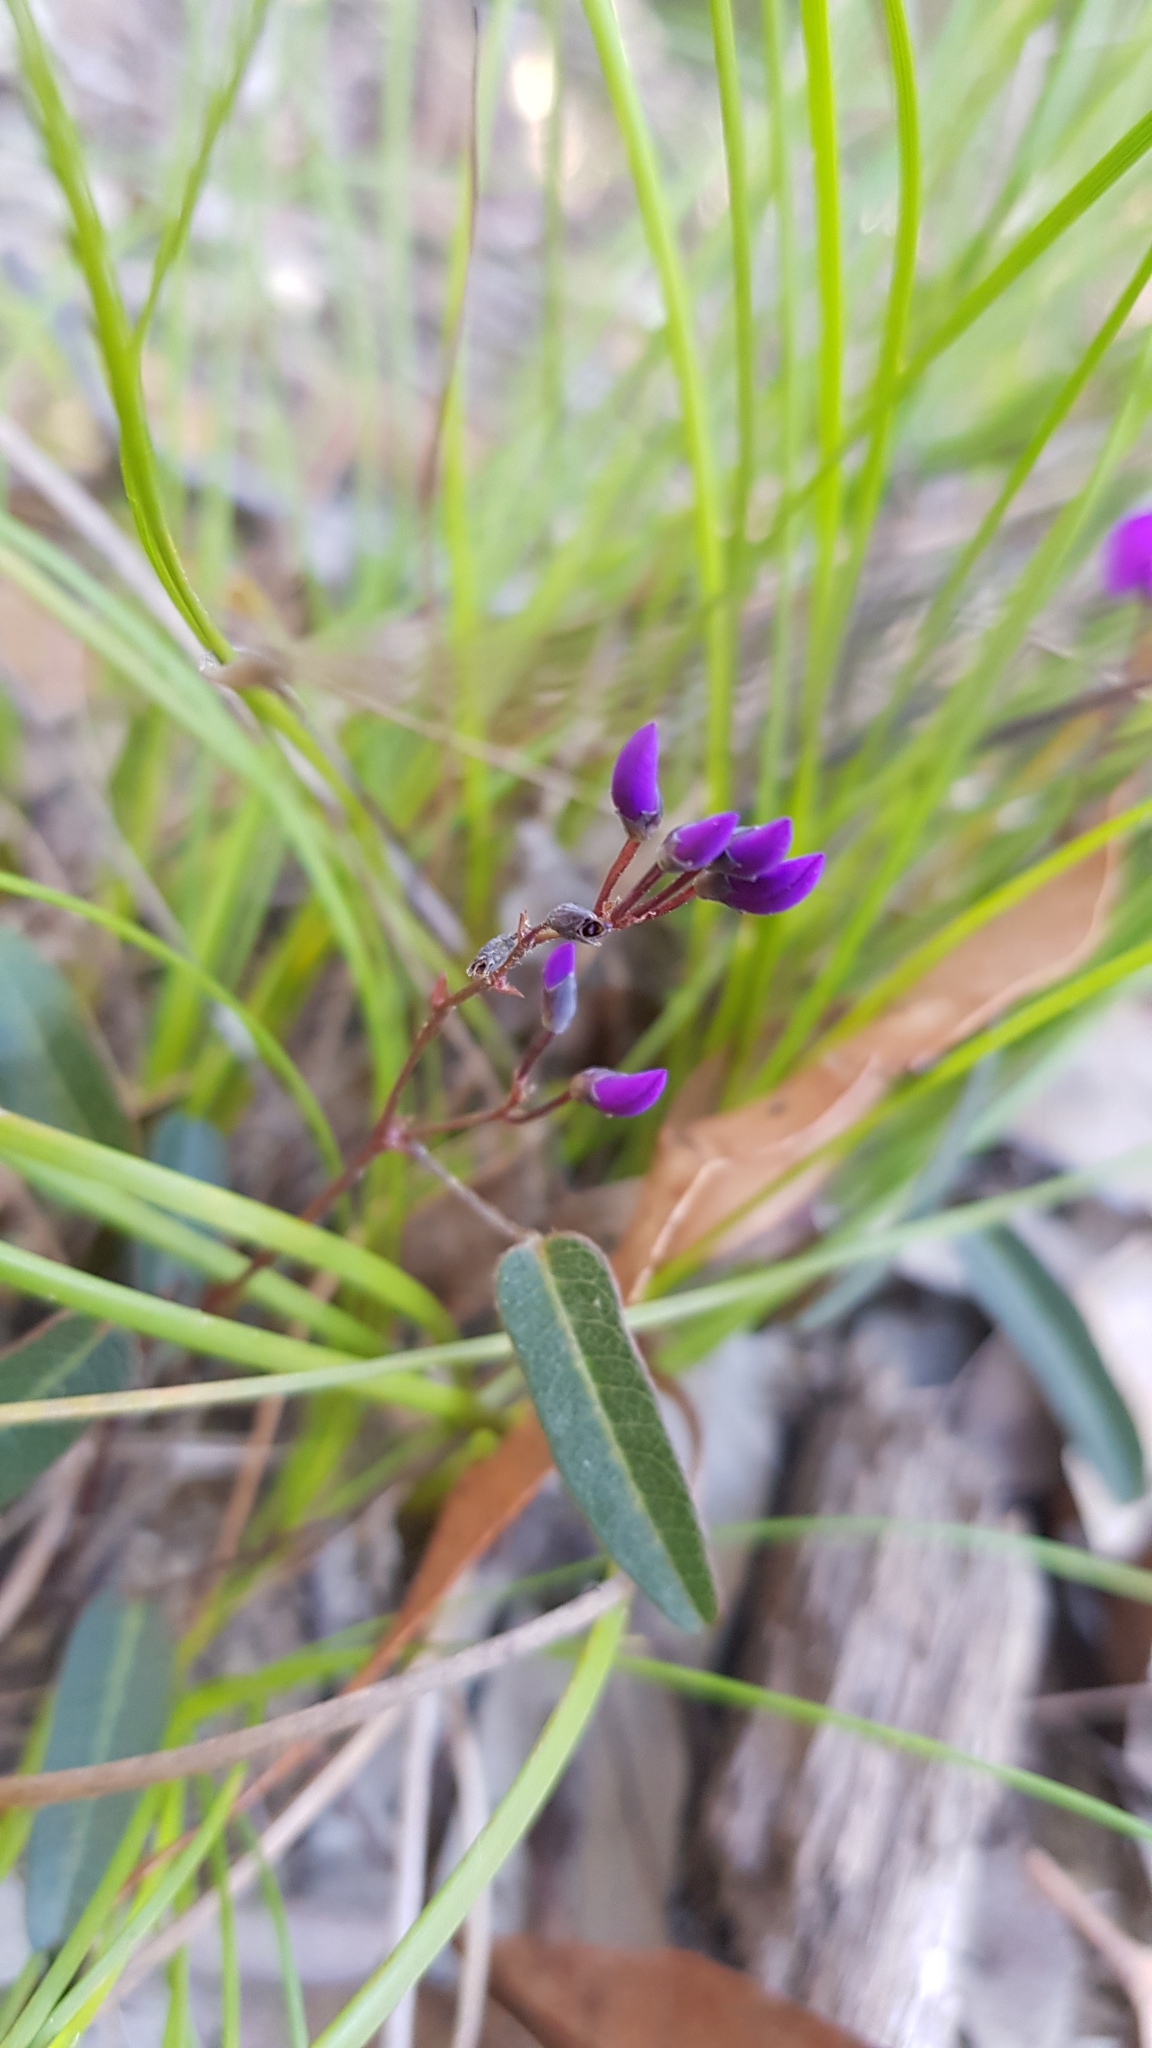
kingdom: Plantae
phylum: Tracheophyta
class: Magnoliopsida
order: Fabales
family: Fabaceae
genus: Hardenbergia
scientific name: Hardenbergia violacea
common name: Coral-pea
